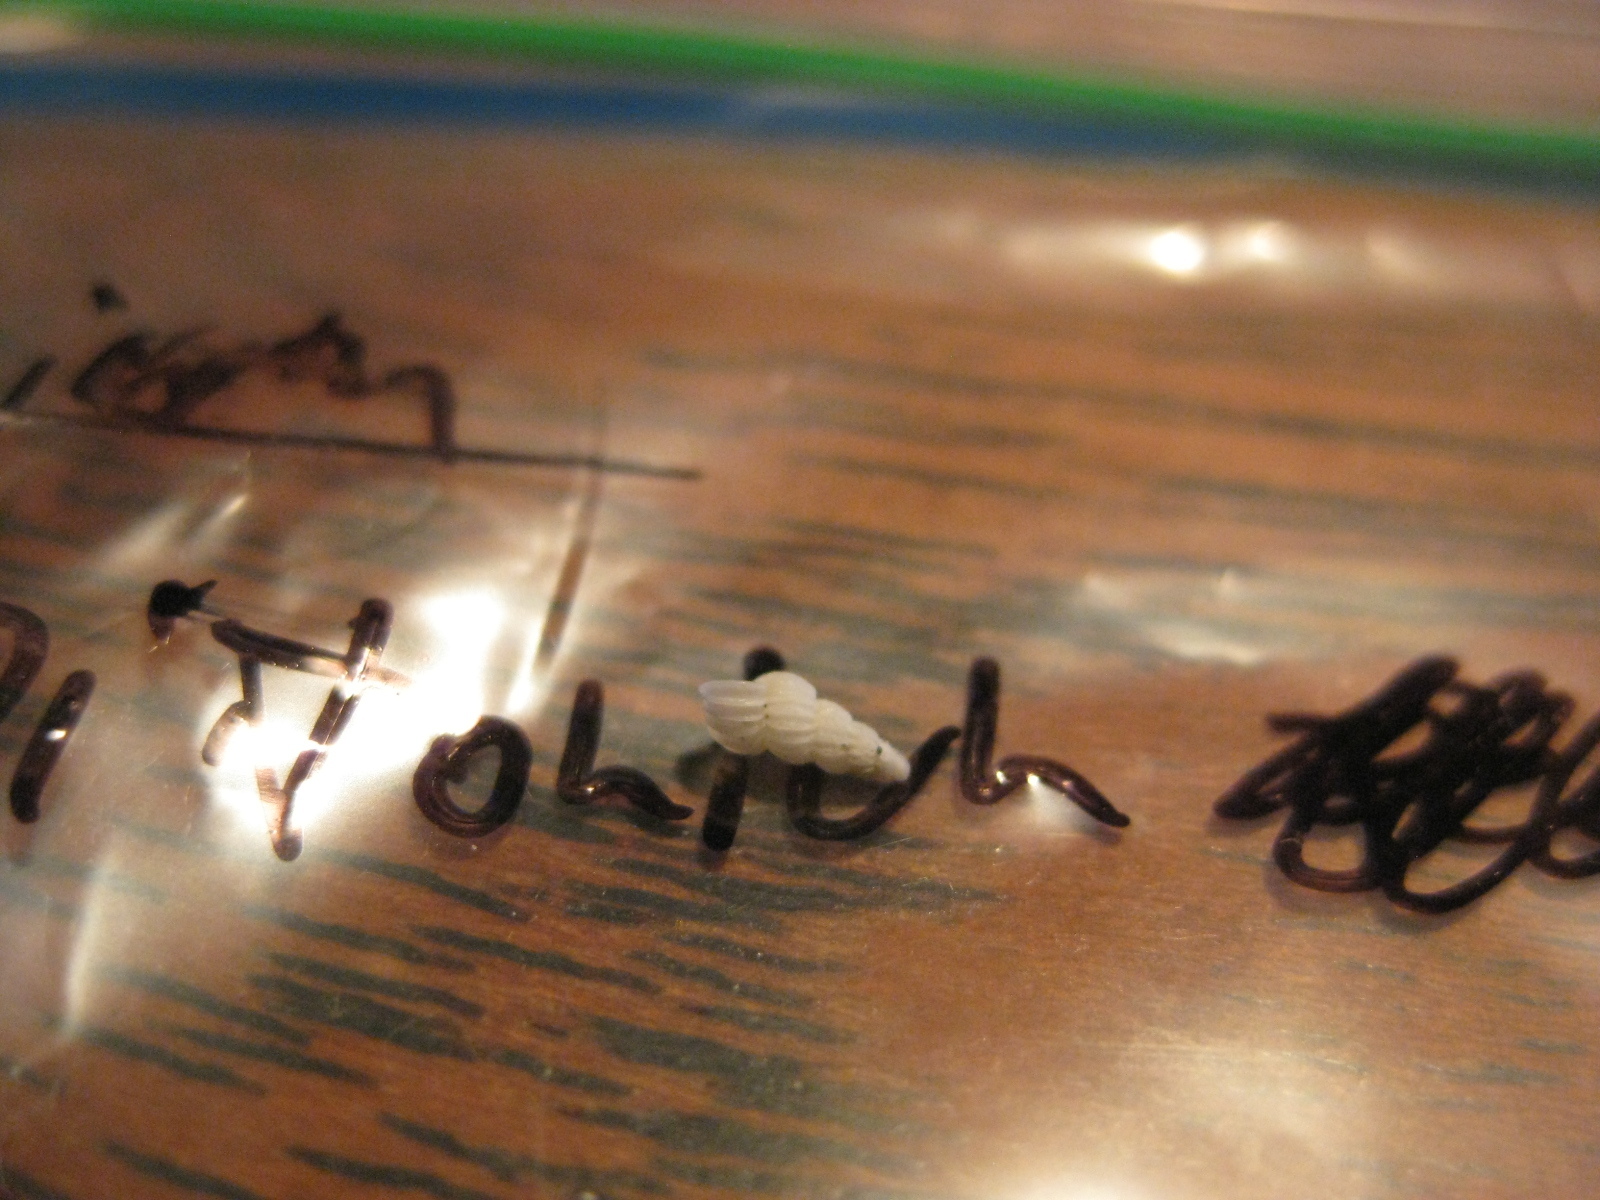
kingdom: Animalia
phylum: Mollusca
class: Gastropoda
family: Epitoniidae
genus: Epitonium
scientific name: Epitonium jukesianum
